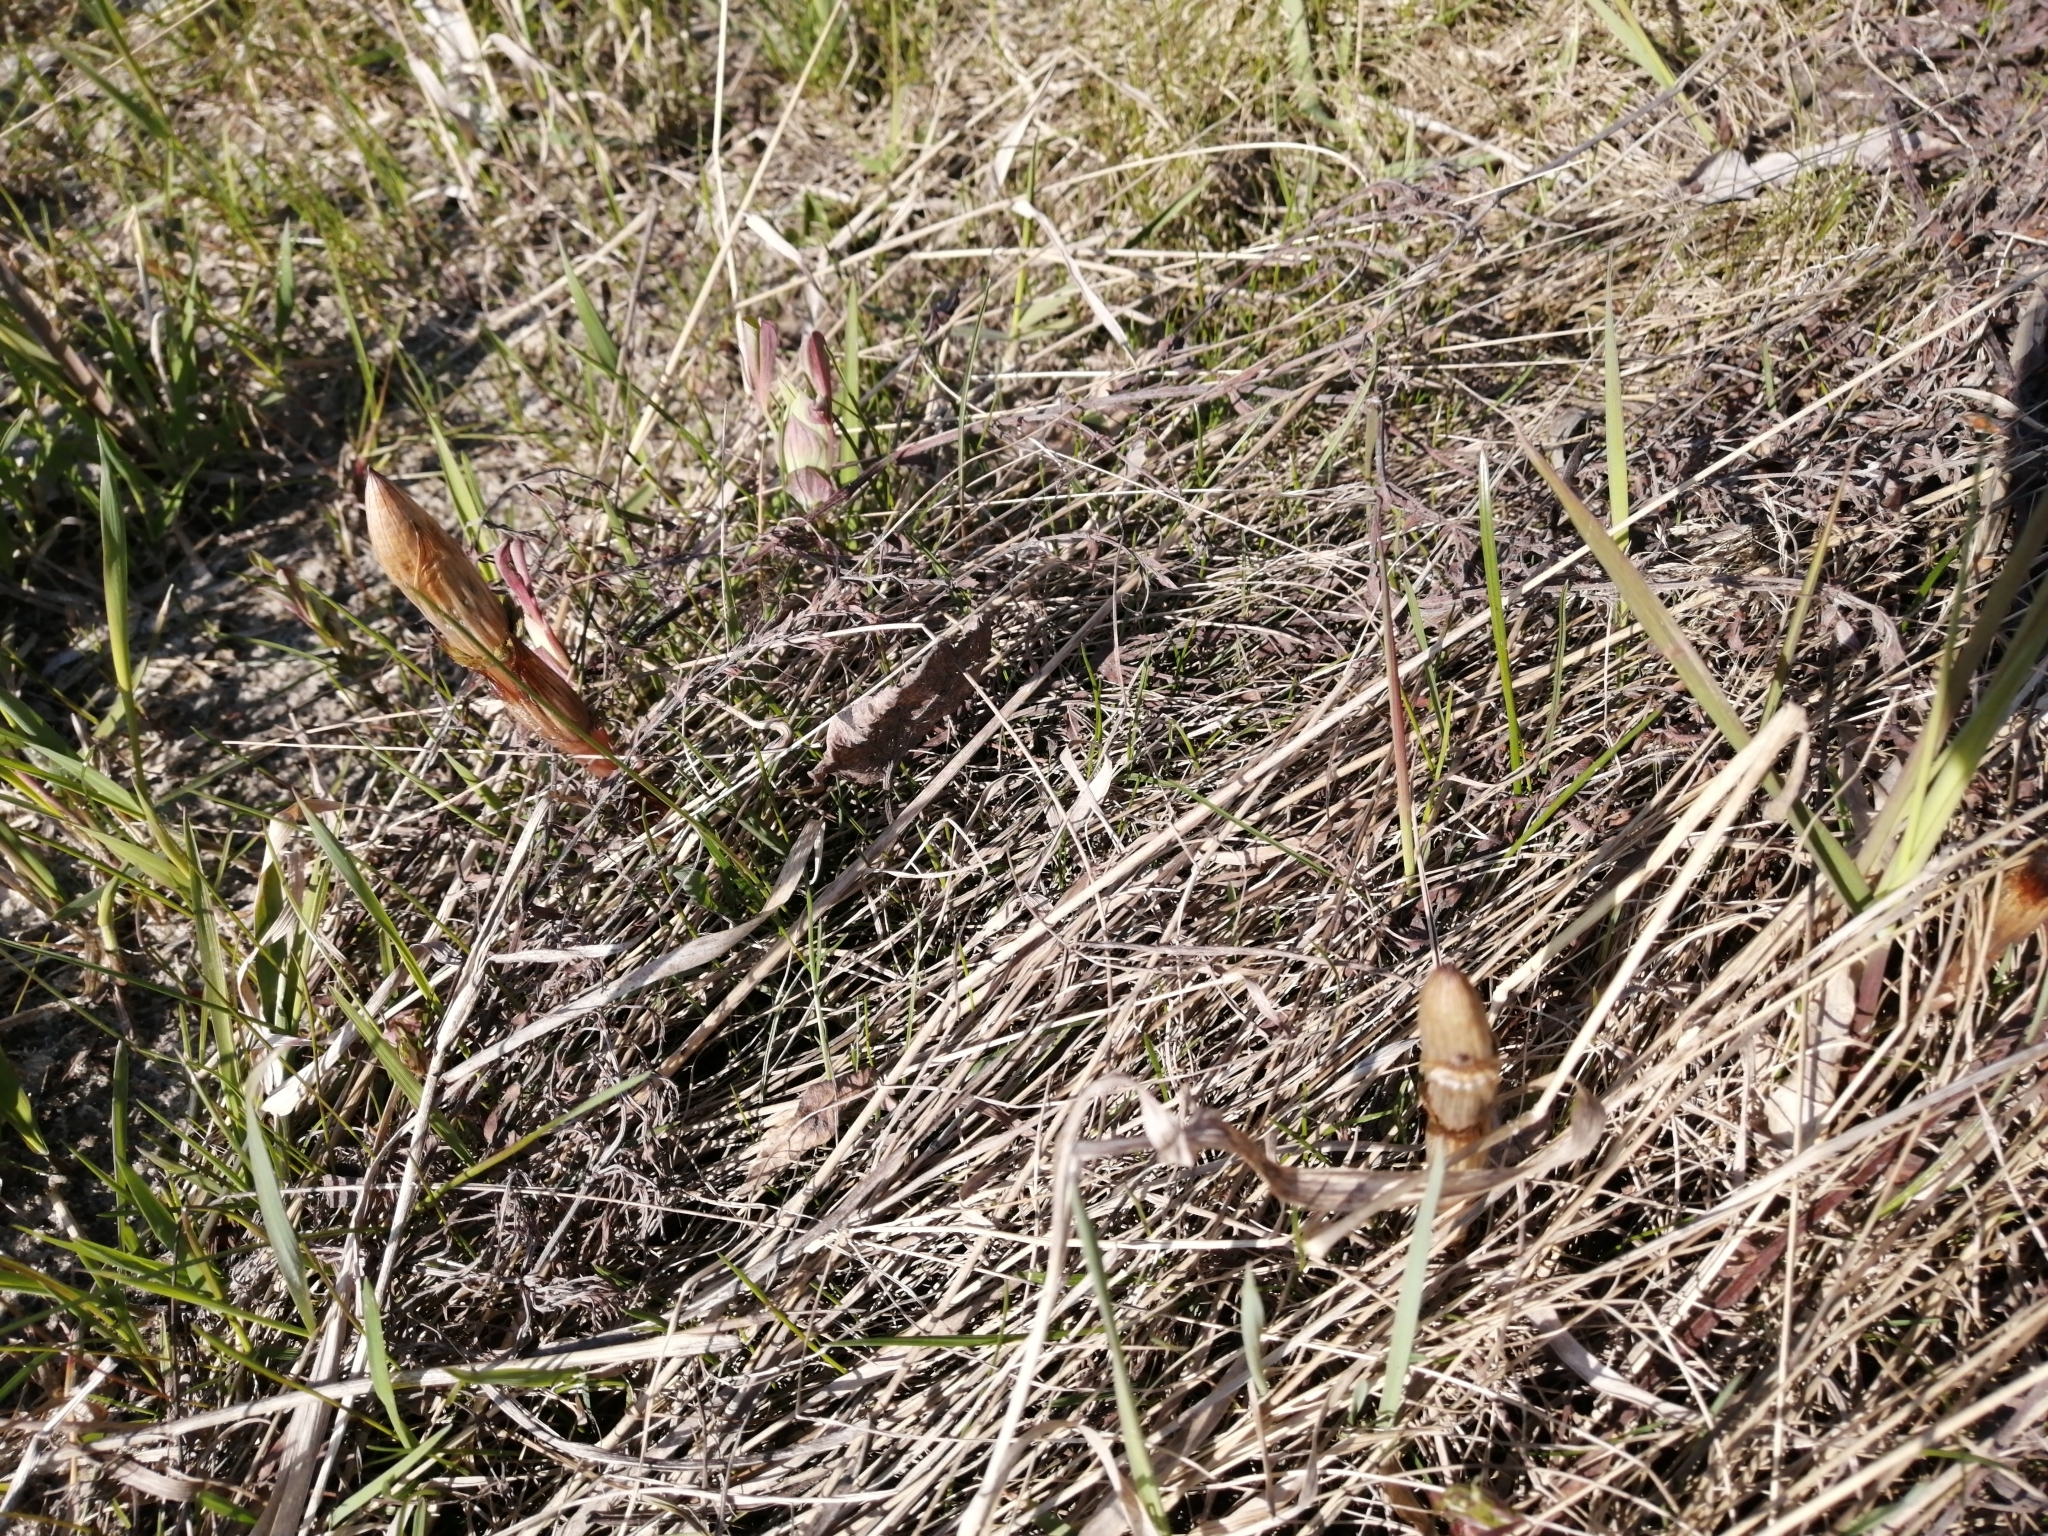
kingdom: Plantae
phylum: Tracheophyta
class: Polypodiopsida
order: Equisetales
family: Equisetaceae
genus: Equisetum
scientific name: Equisetum sylvaticum
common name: Wood horsetail
